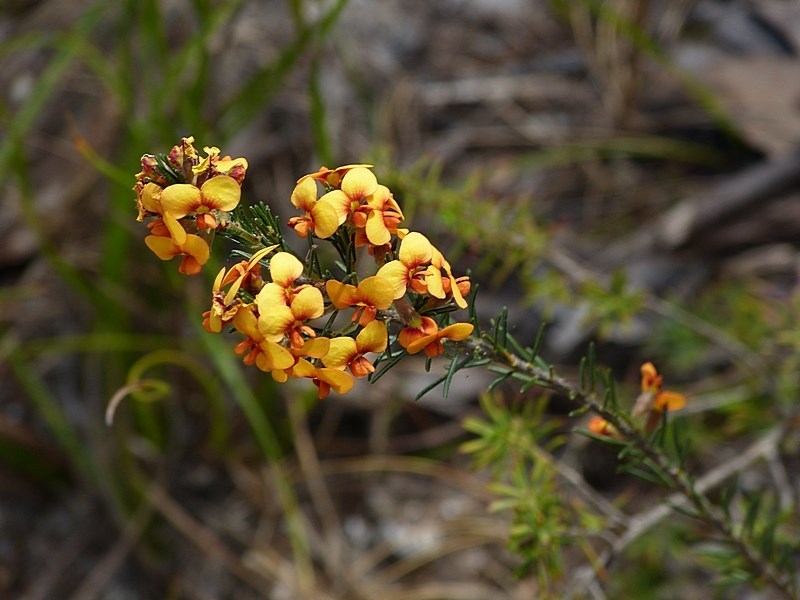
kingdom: Plantae
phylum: Tracheophyta
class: Magnoliopsida
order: Fabales
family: Fabaceae
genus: Dillwynia
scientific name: Dillwynia sericea
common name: Showy parrot-pea
